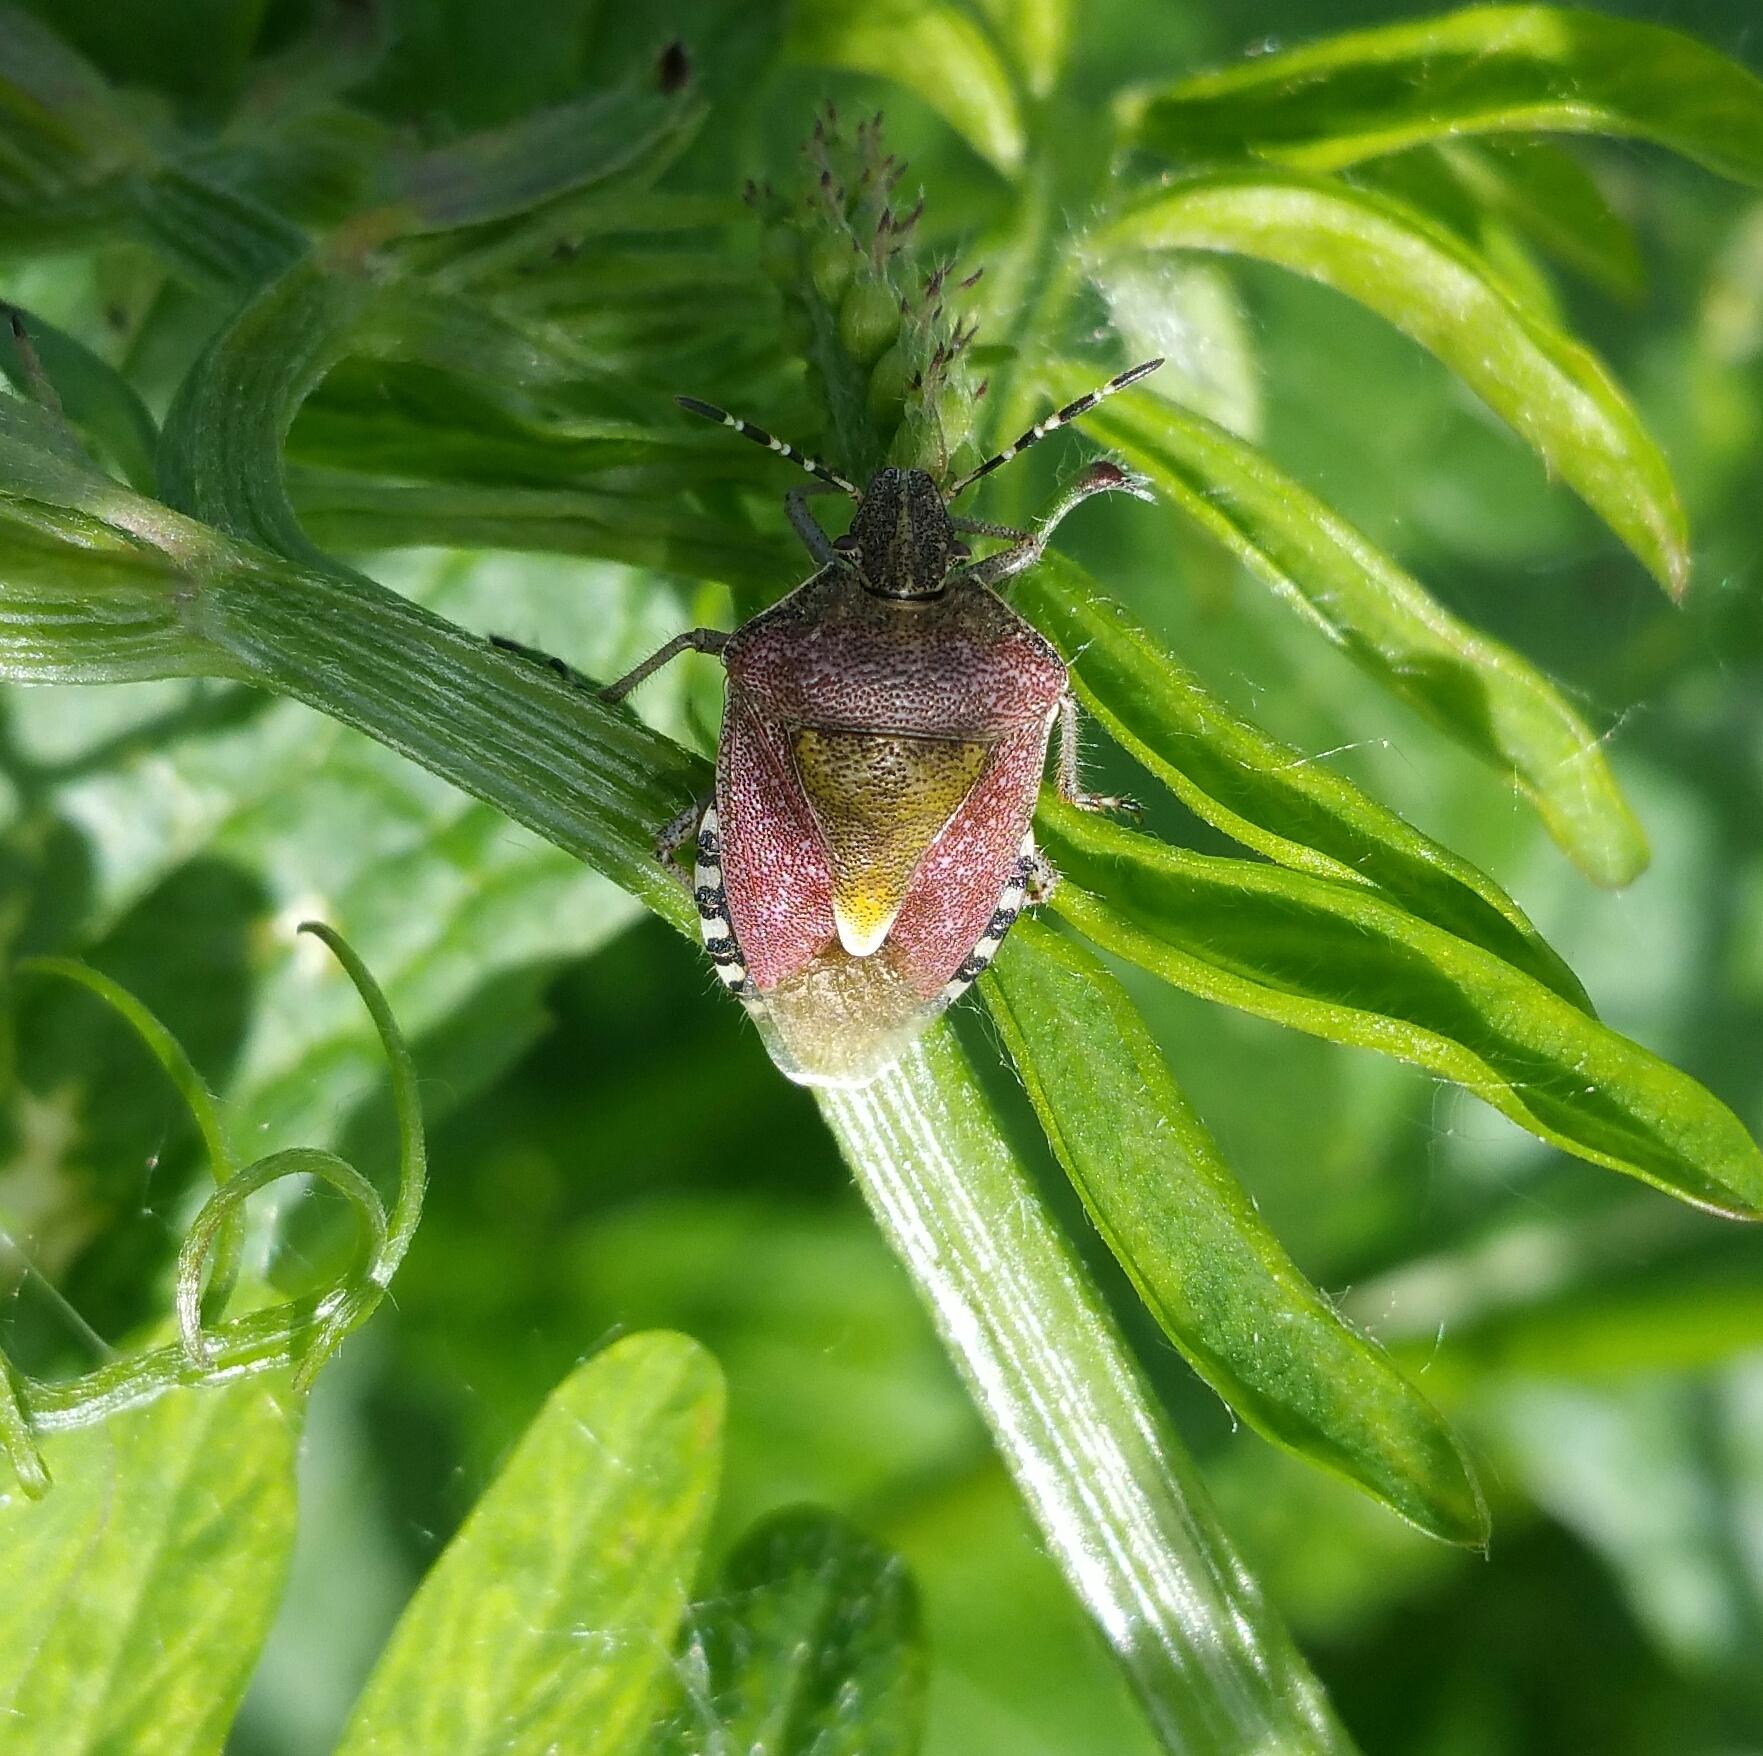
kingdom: Animalia
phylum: Arthropoda
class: Insecta
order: Hemiptera
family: Pentatomidae
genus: Dolycoris
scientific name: Dolycoris baccarum
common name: Sloe bug
